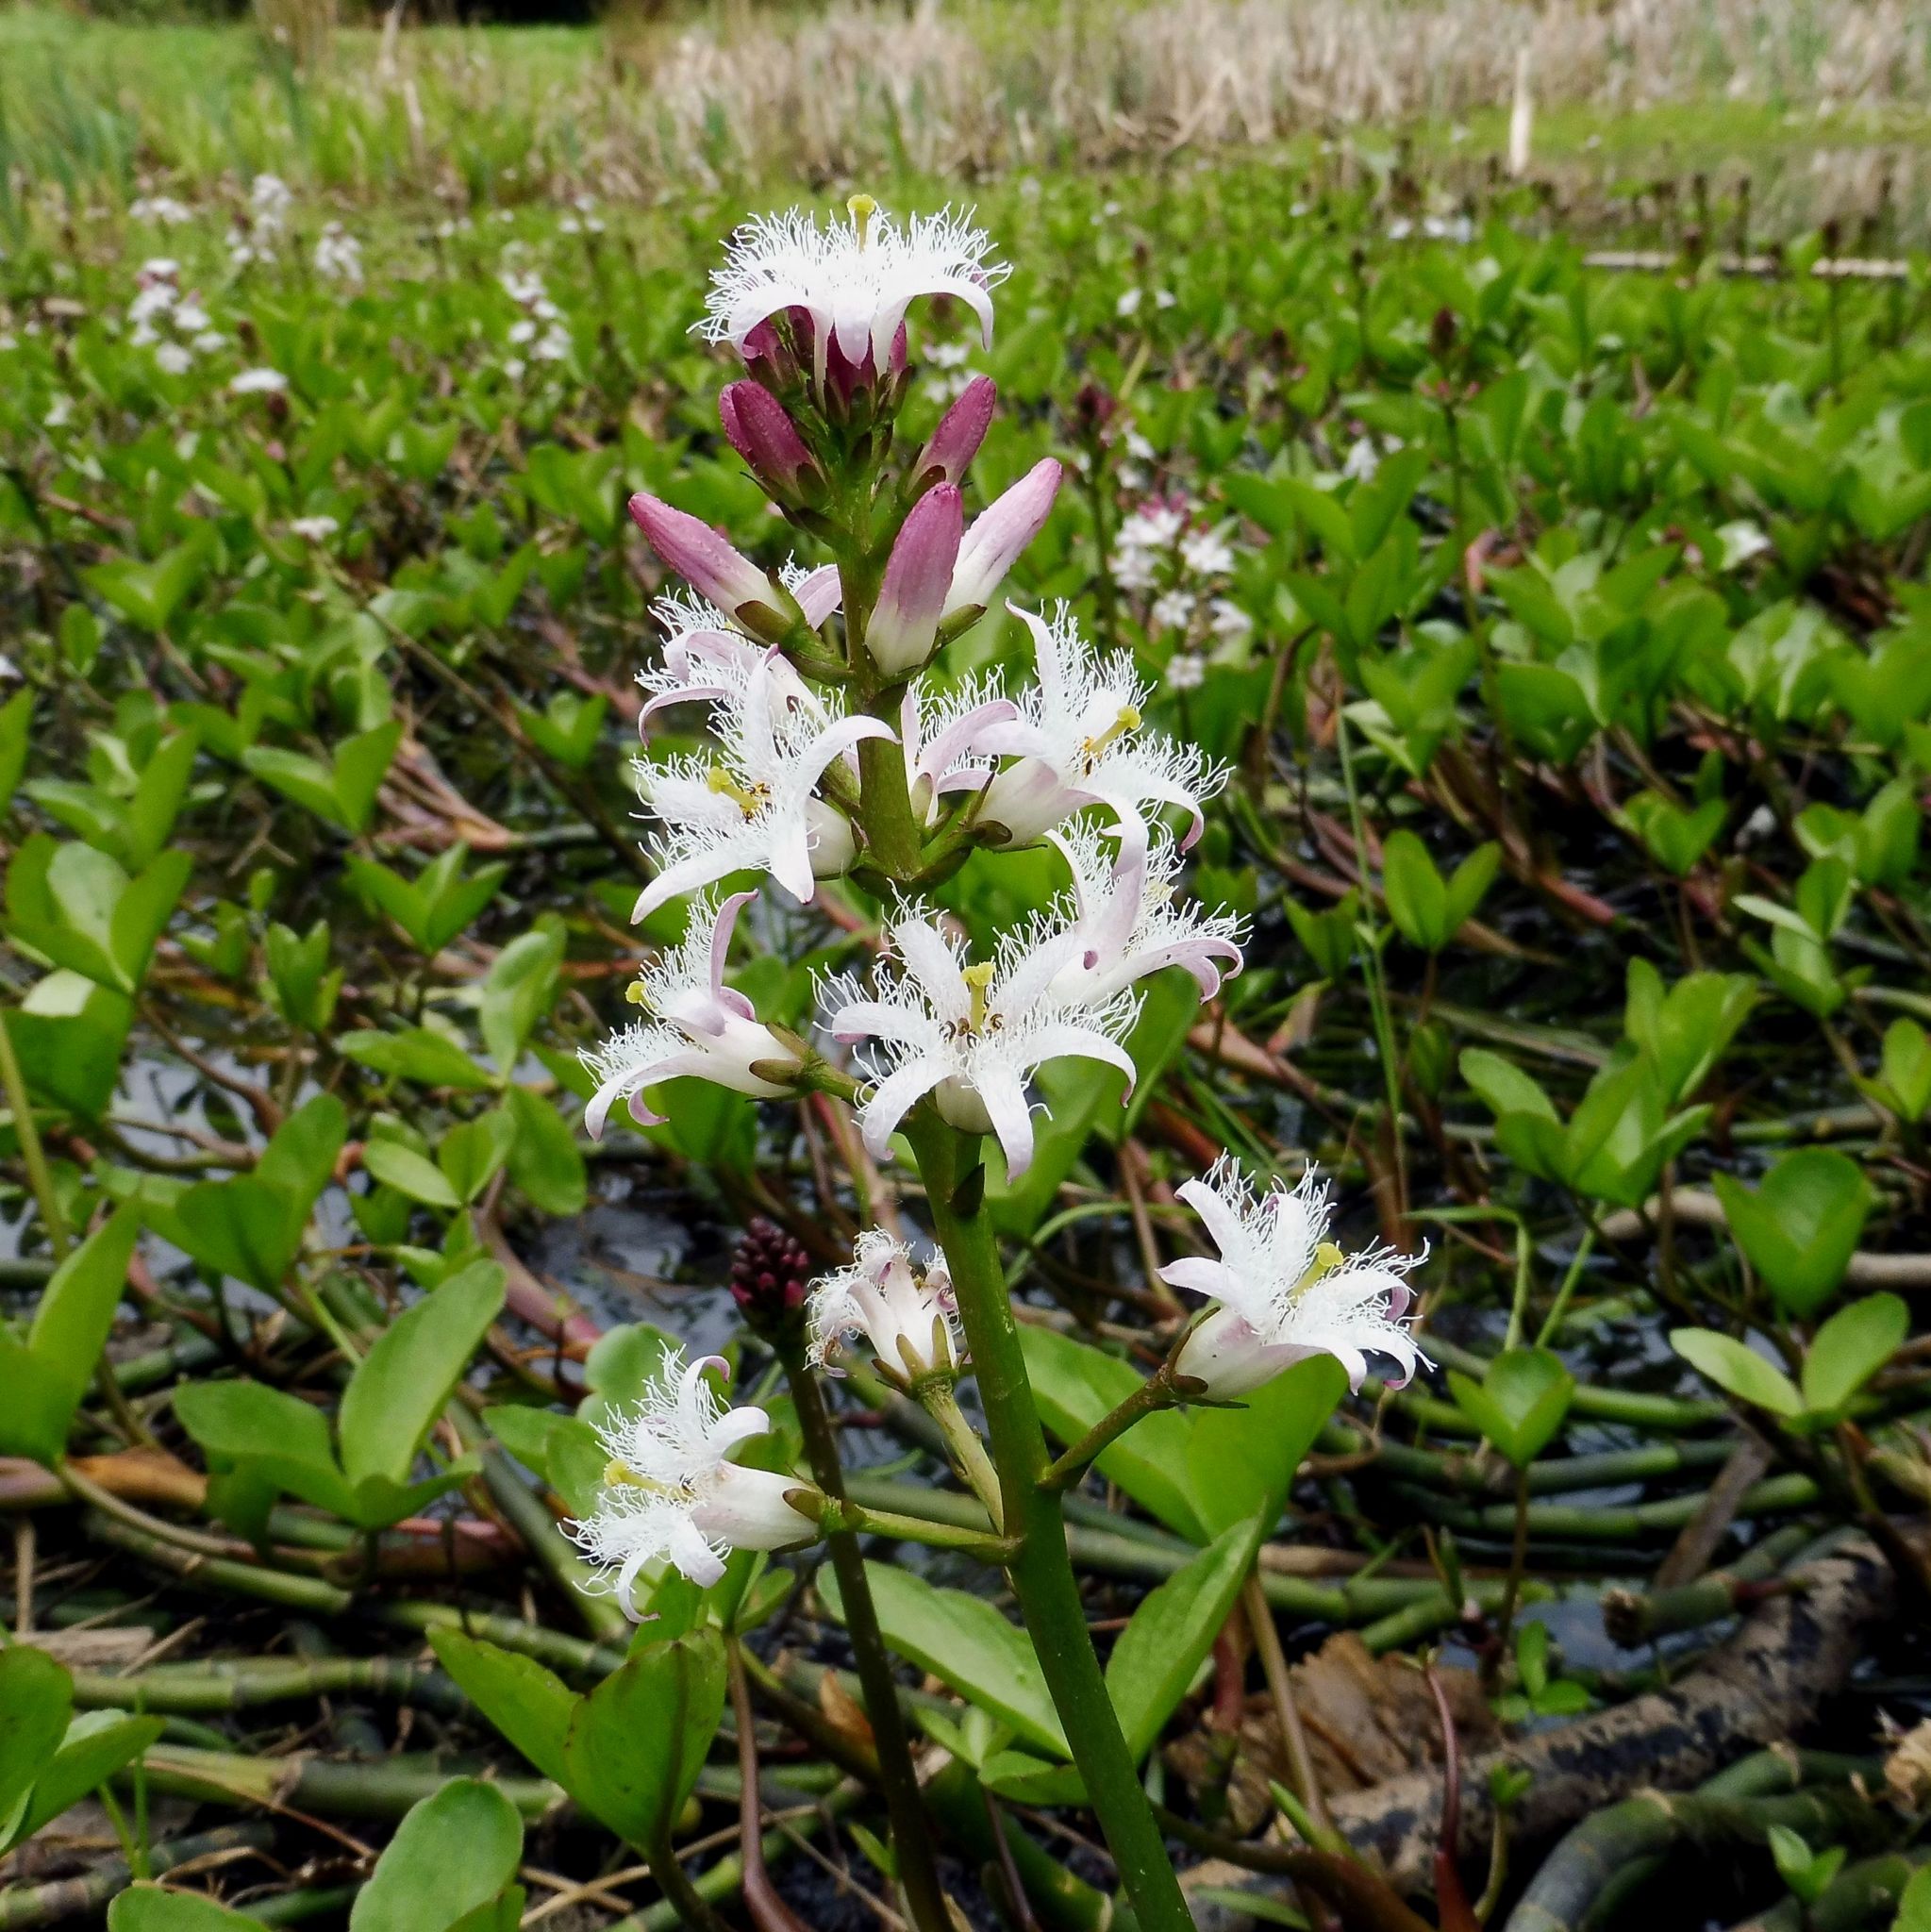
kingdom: Plantae
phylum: Tracheophyta
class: Magnoliopsida
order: Asterales
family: Menyanthaceae
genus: Menyanthes
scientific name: Menyanthes trifoliata
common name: Bogbean
